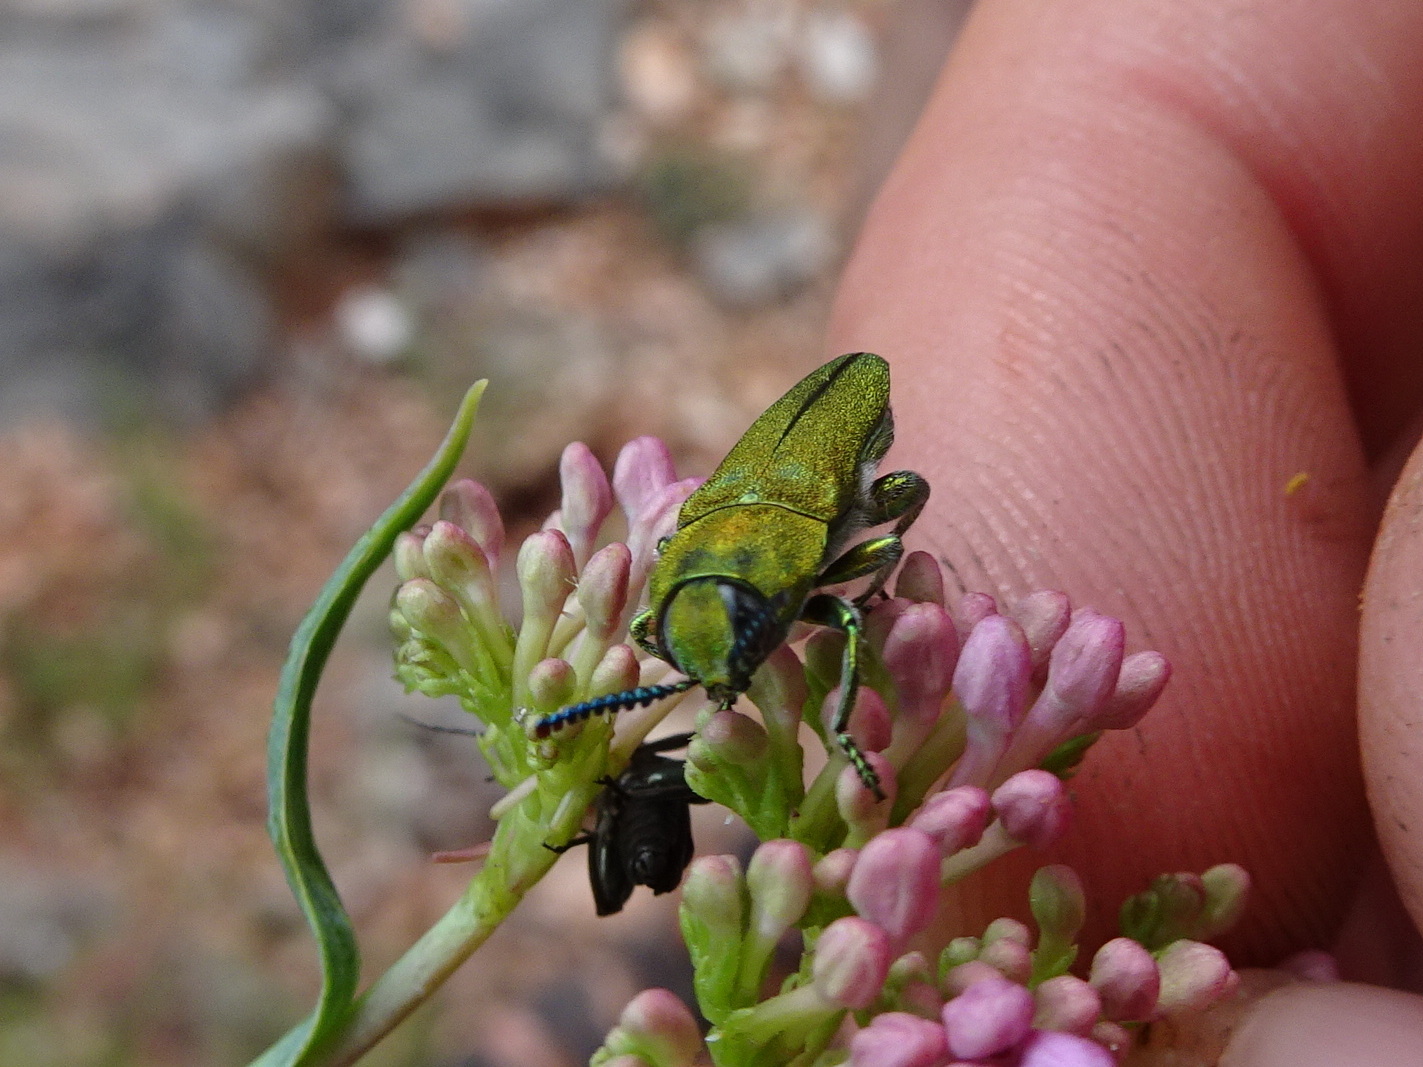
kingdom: Animalia
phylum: Arthropoda
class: Insecta
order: Coleoptera
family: Buprestidae
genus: Anthaxia
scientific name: Anthaxia hungarica
